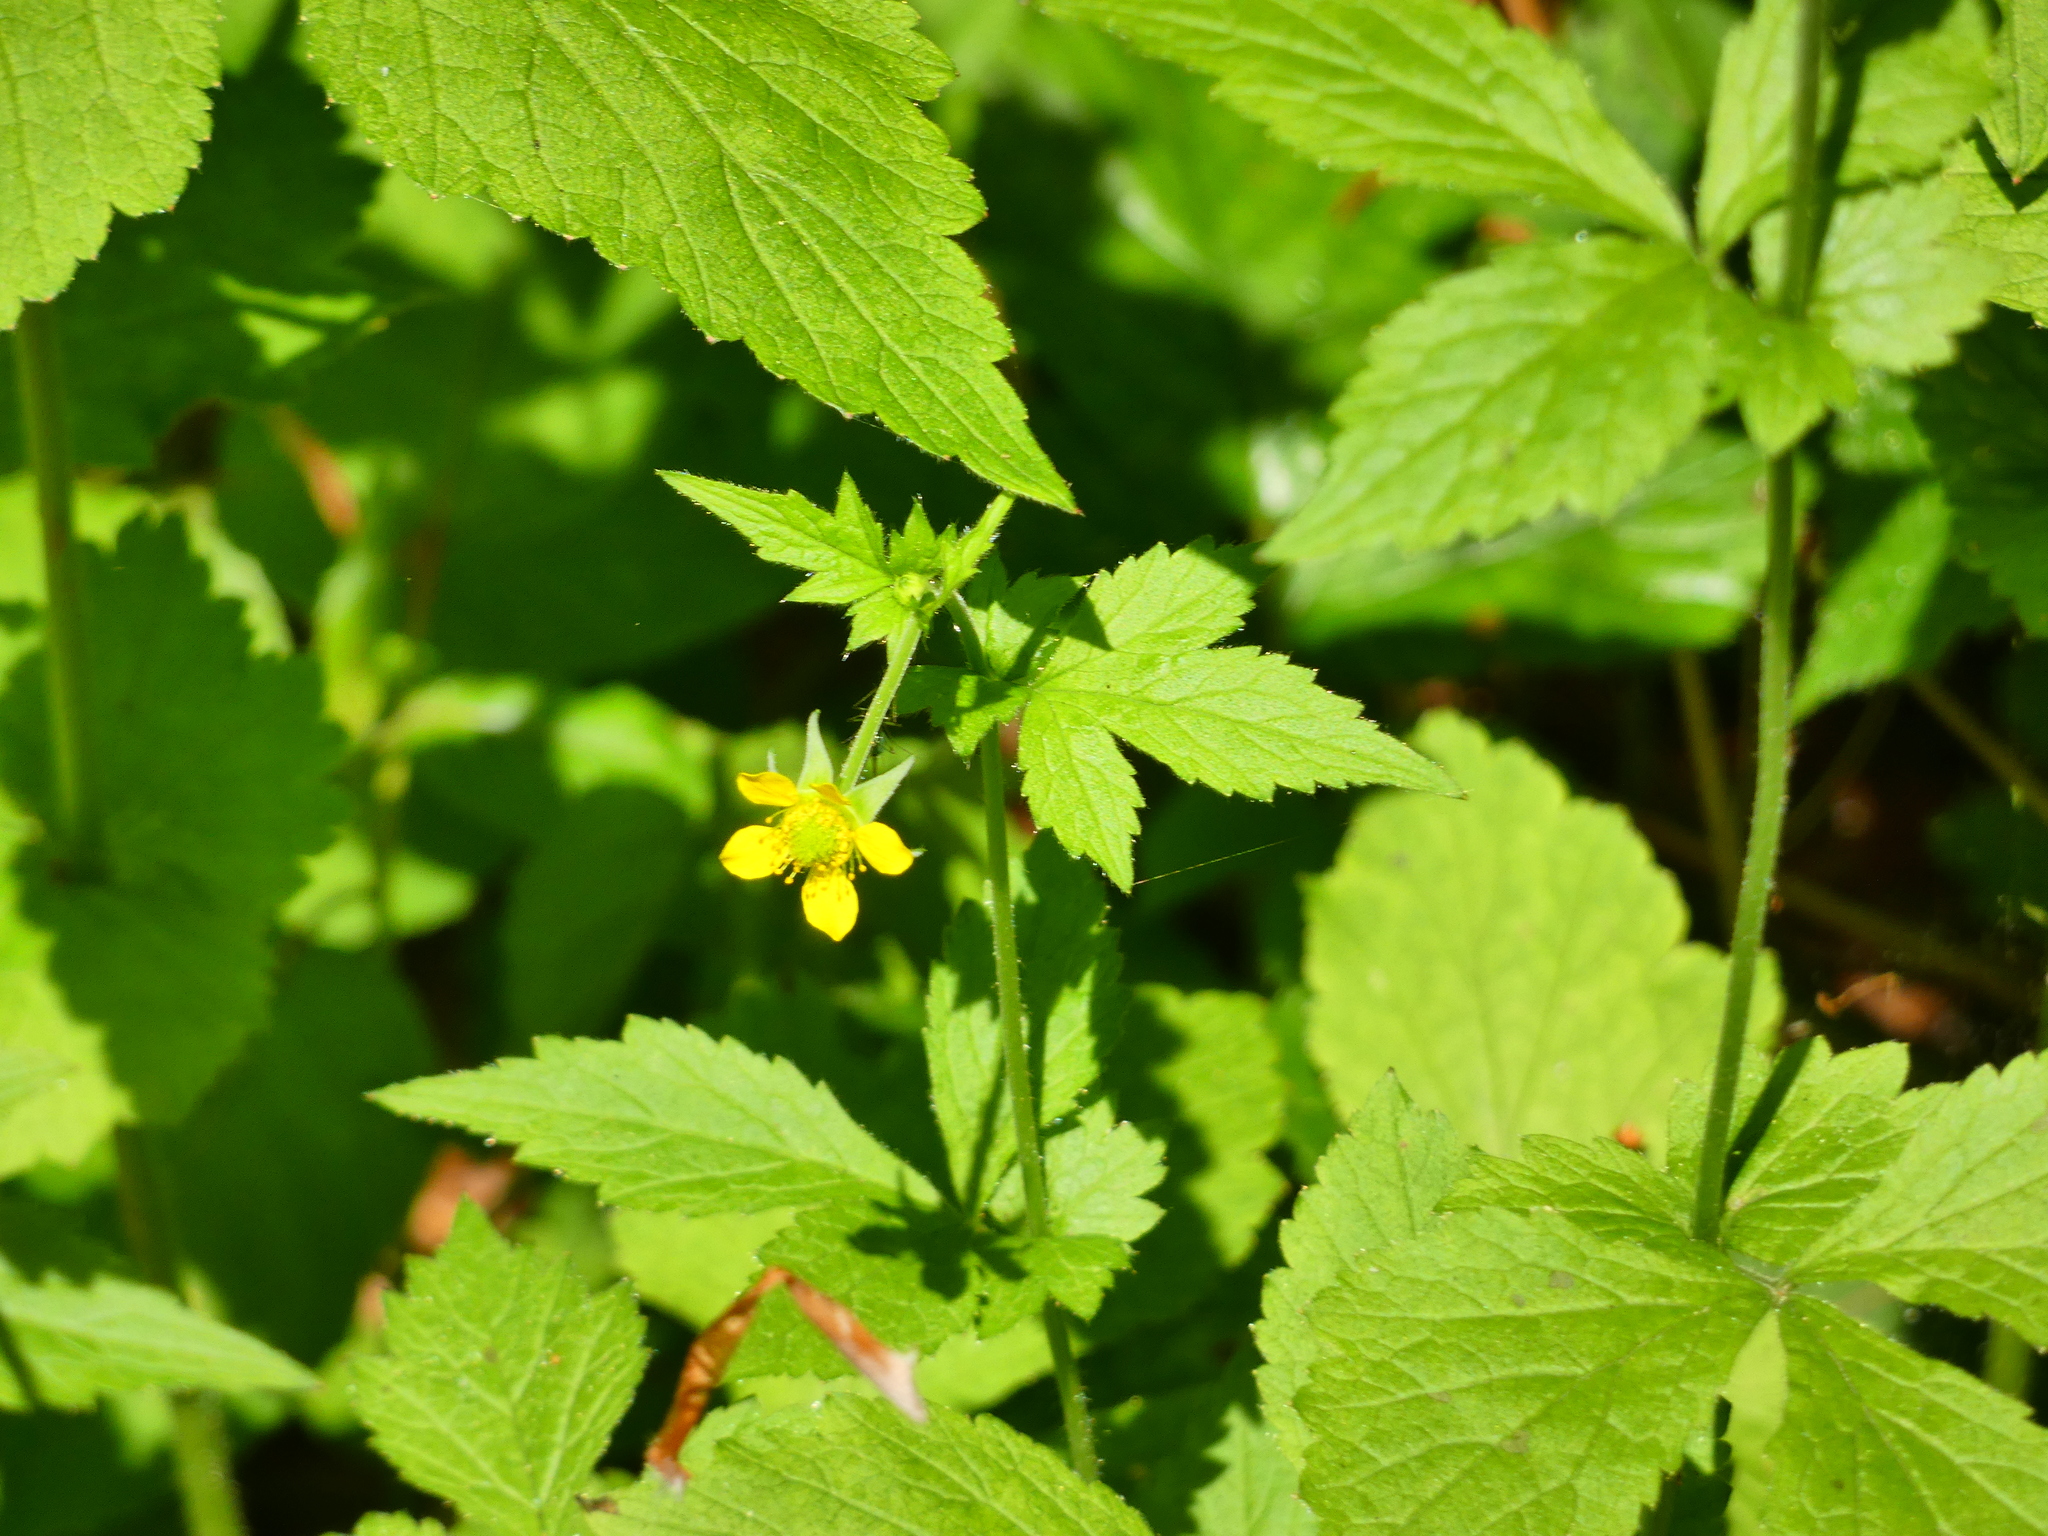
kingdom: Plantae
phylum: Tracheophyta
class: Magnoliopsida
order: Rosales
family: Rosaceae
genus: Geum
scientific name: Geum urbanum
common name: Wood avens
